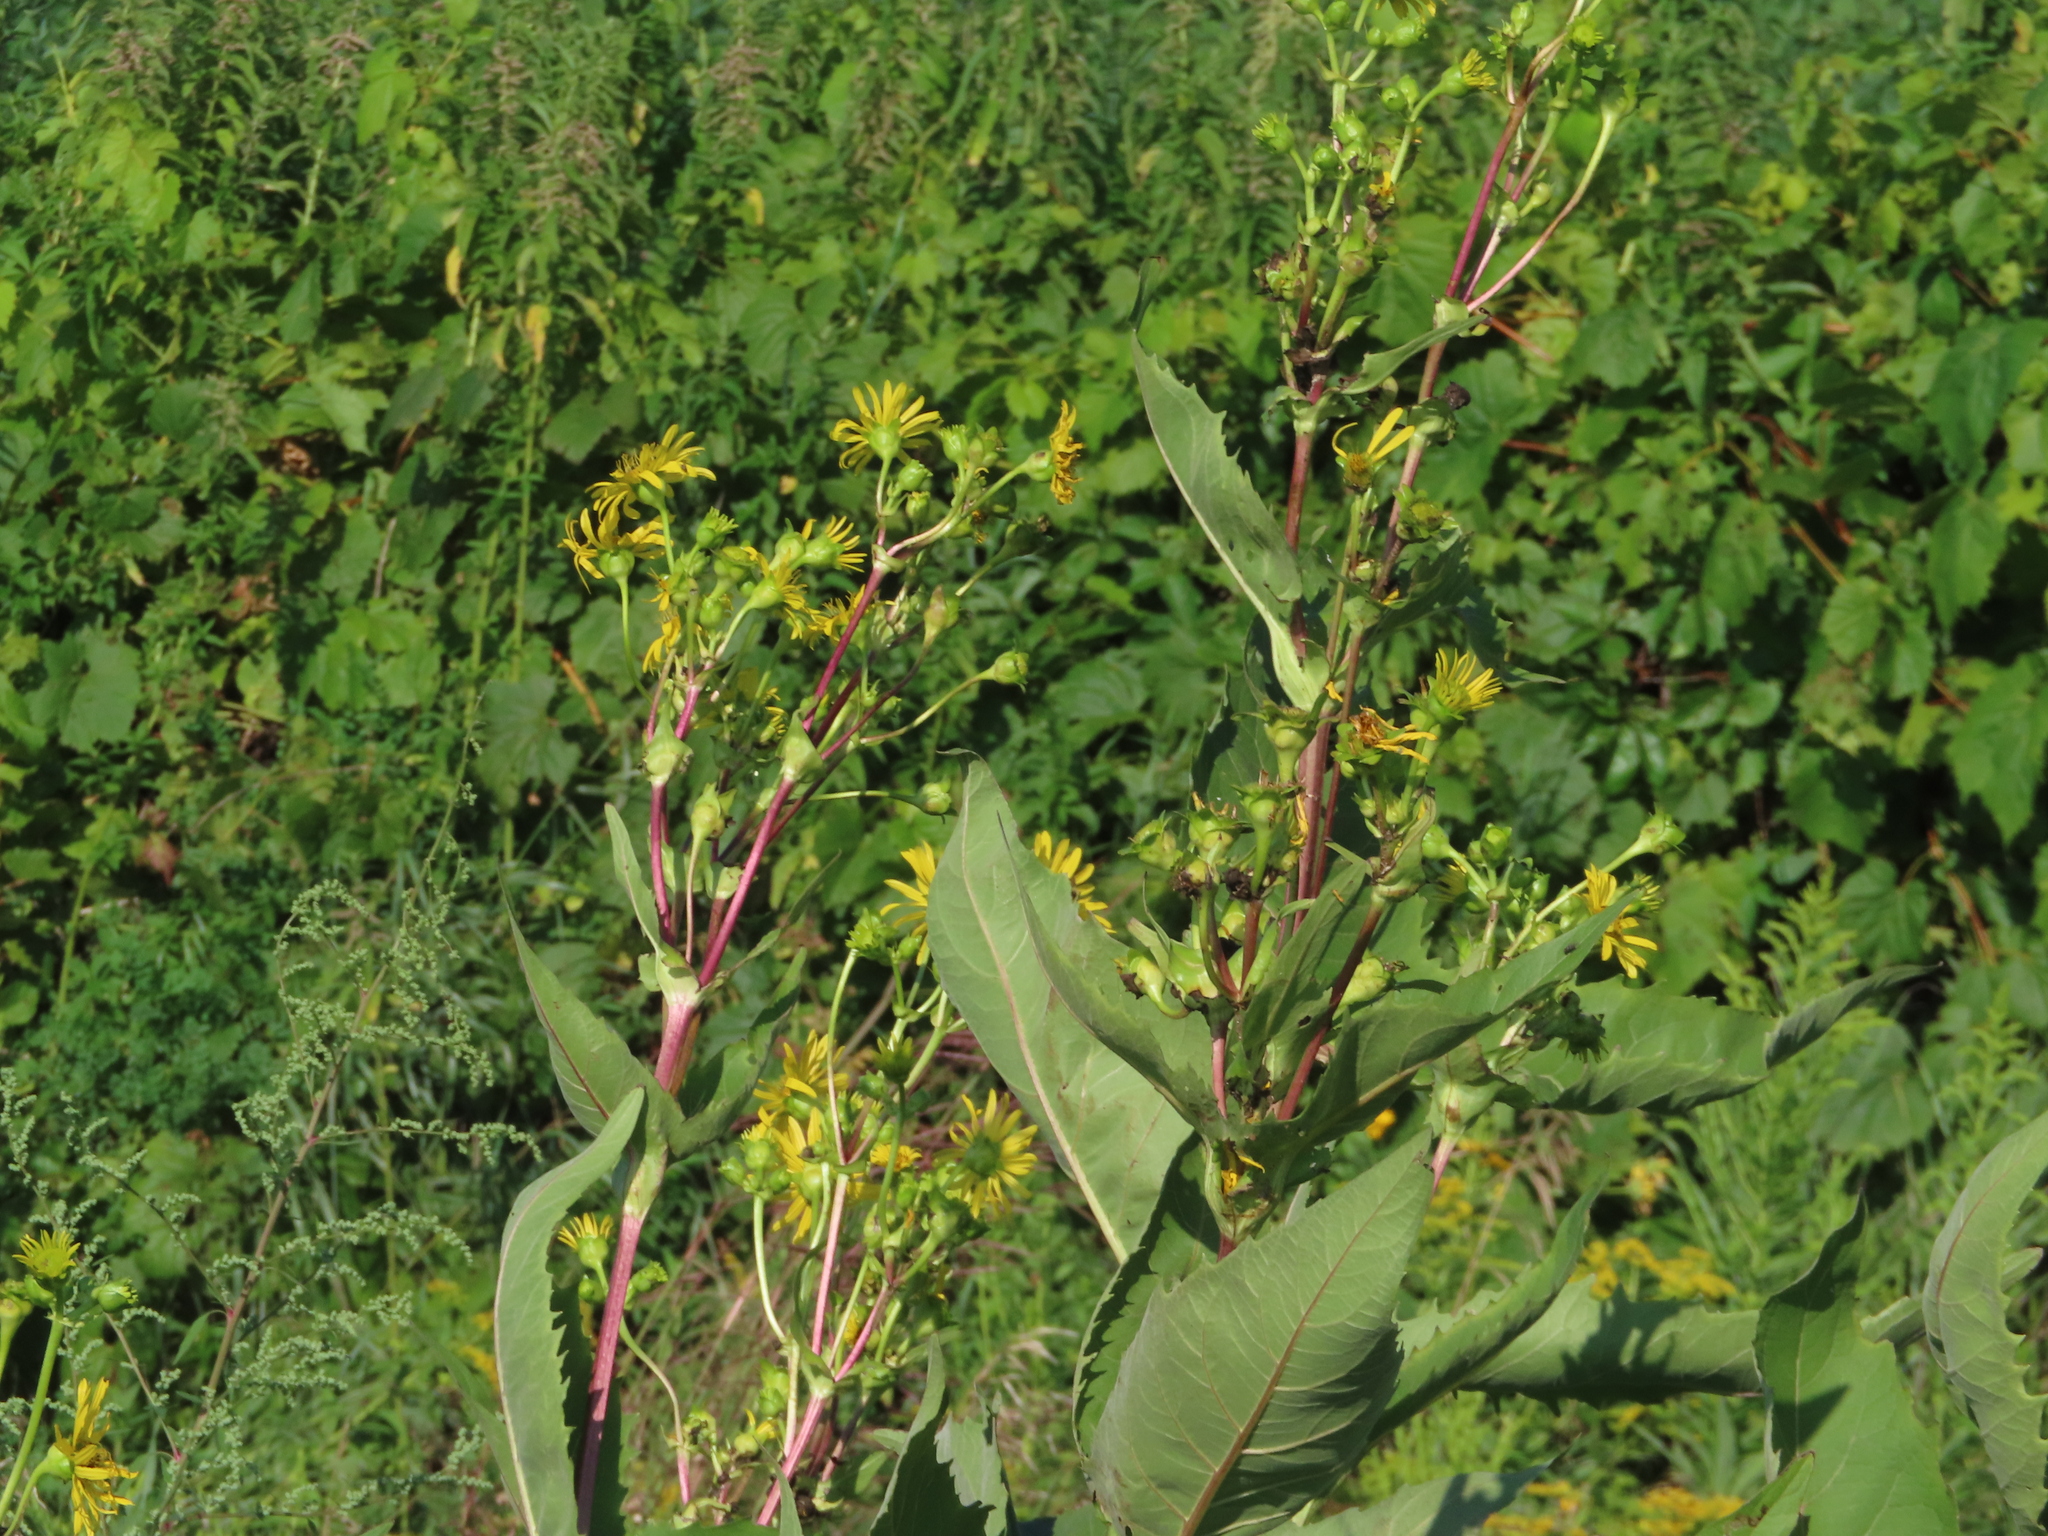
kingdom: Plantae
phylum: Tracheophyta
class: Magnoliopsida
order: Asterales
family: Asteraceae
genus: Silphium
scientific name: Silphium perfoliatum
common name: Cup-plant
